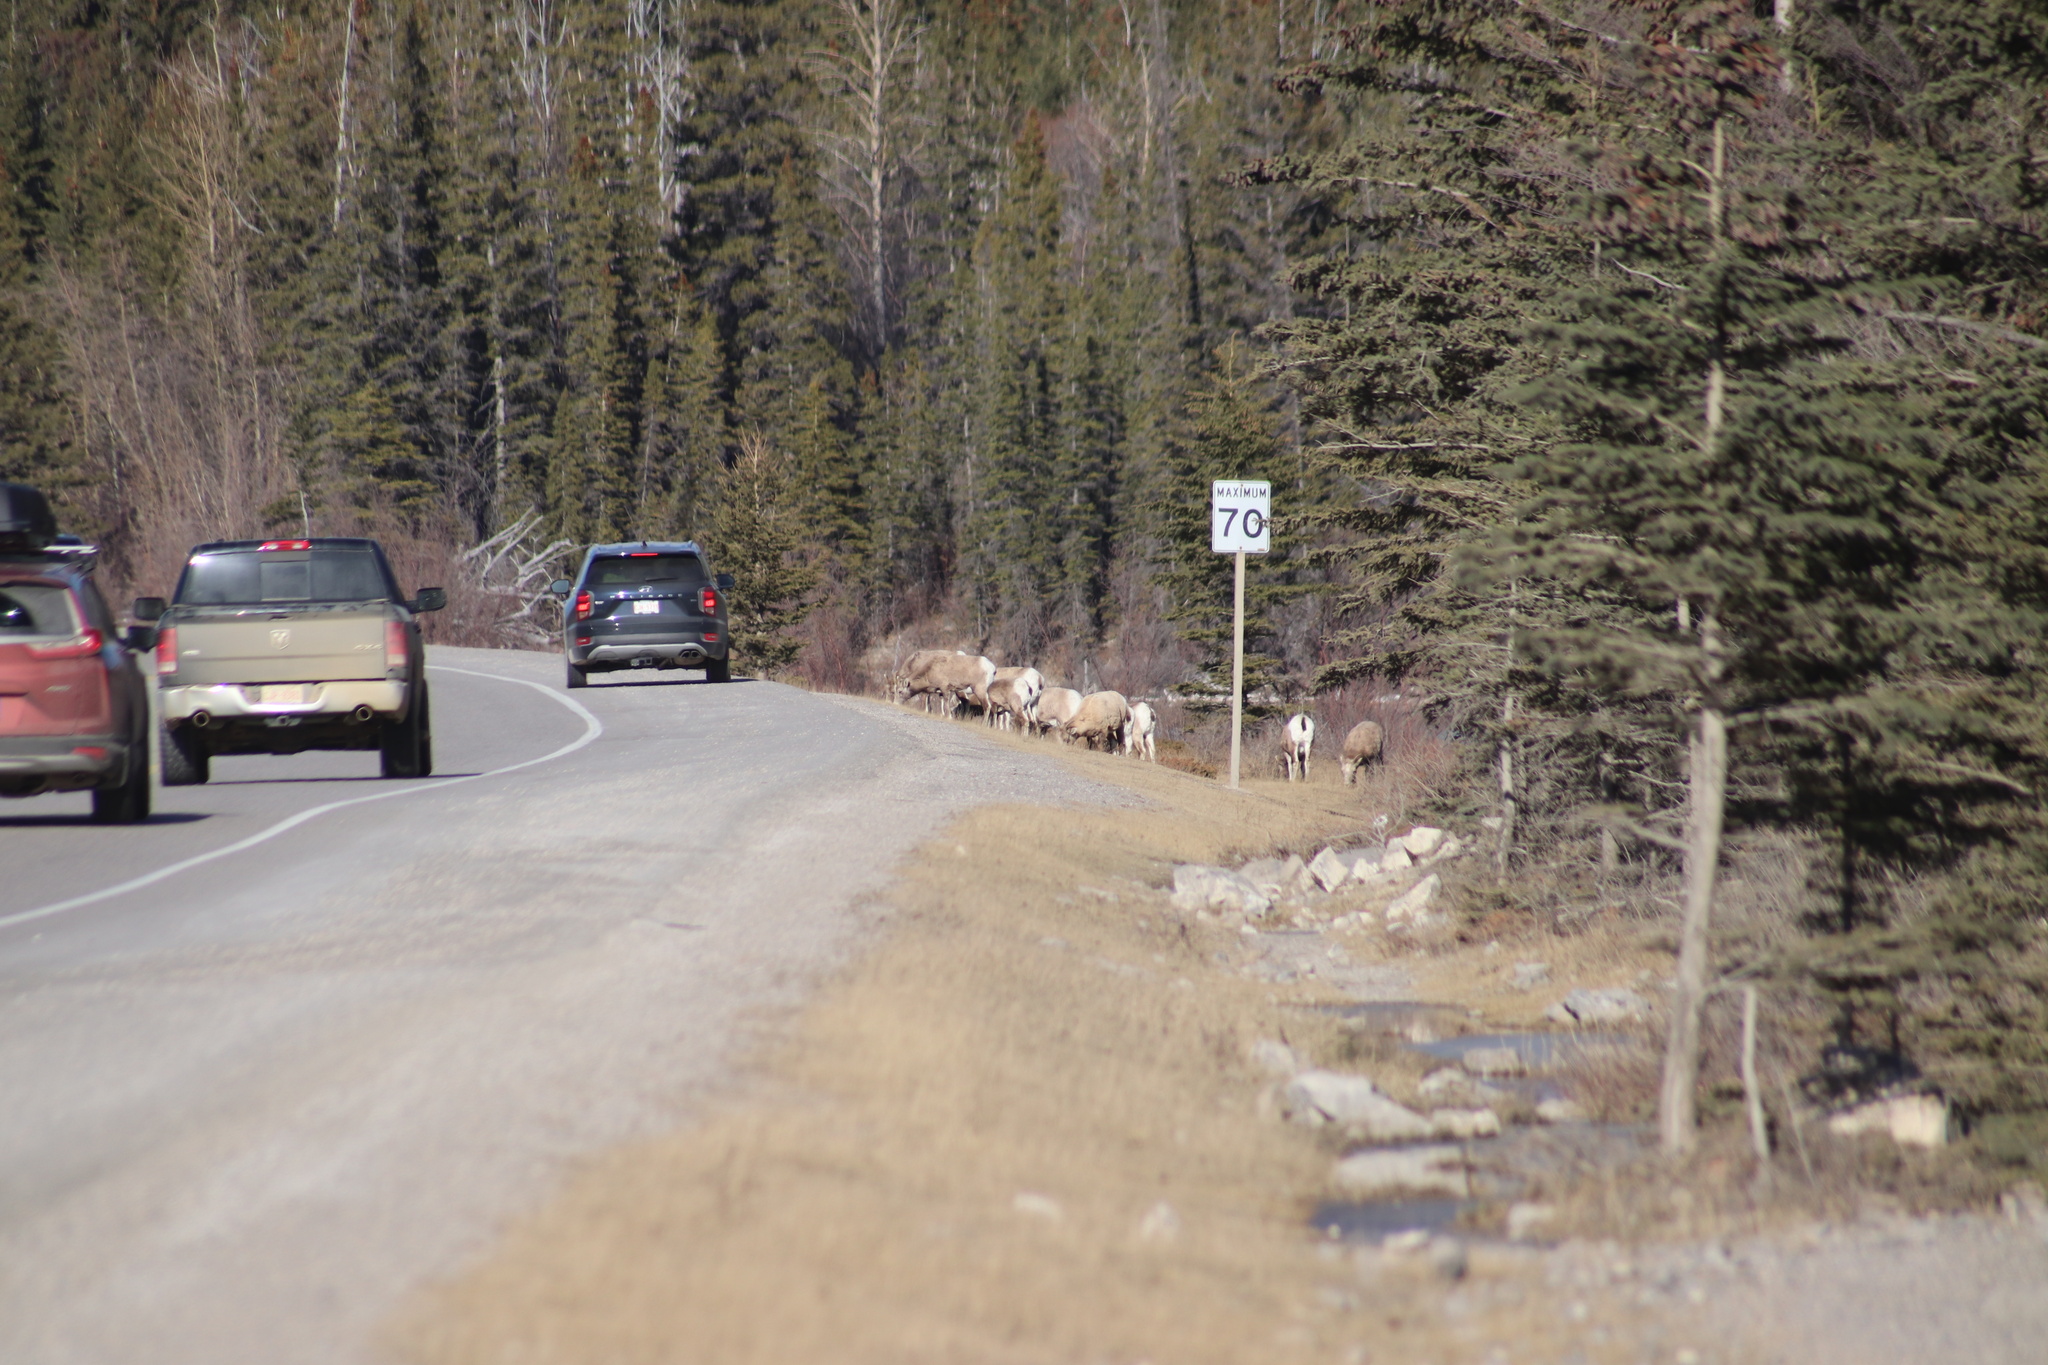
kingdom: Animalia
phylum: Chordata
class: Mammalia
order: Artiodactyla
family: Bovidae
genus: Ovis
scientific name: Ovis canadensis
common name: Bighorn sheep
